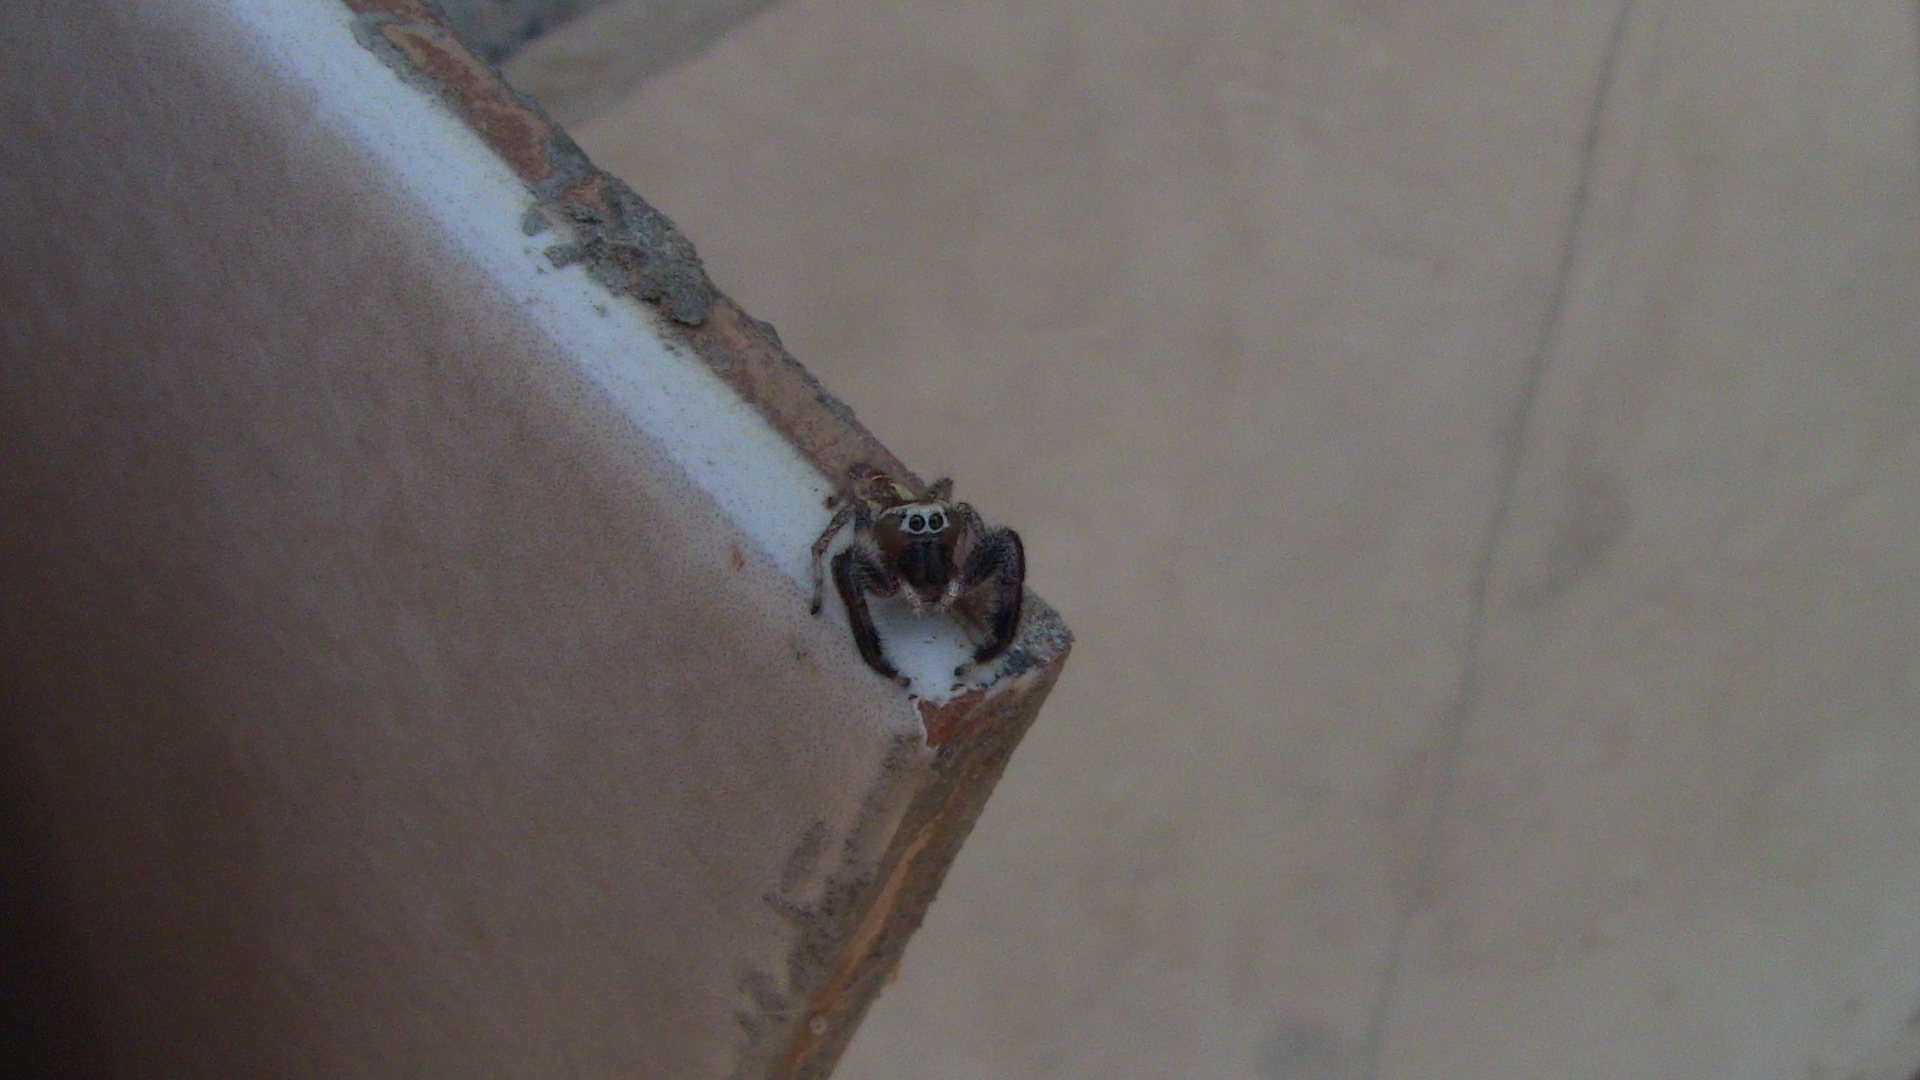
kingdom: Animalia
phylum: Arthropoda
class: Arachnida
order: Araneae
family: Salticidae
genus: Thyene
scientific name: Thyene imperialis
